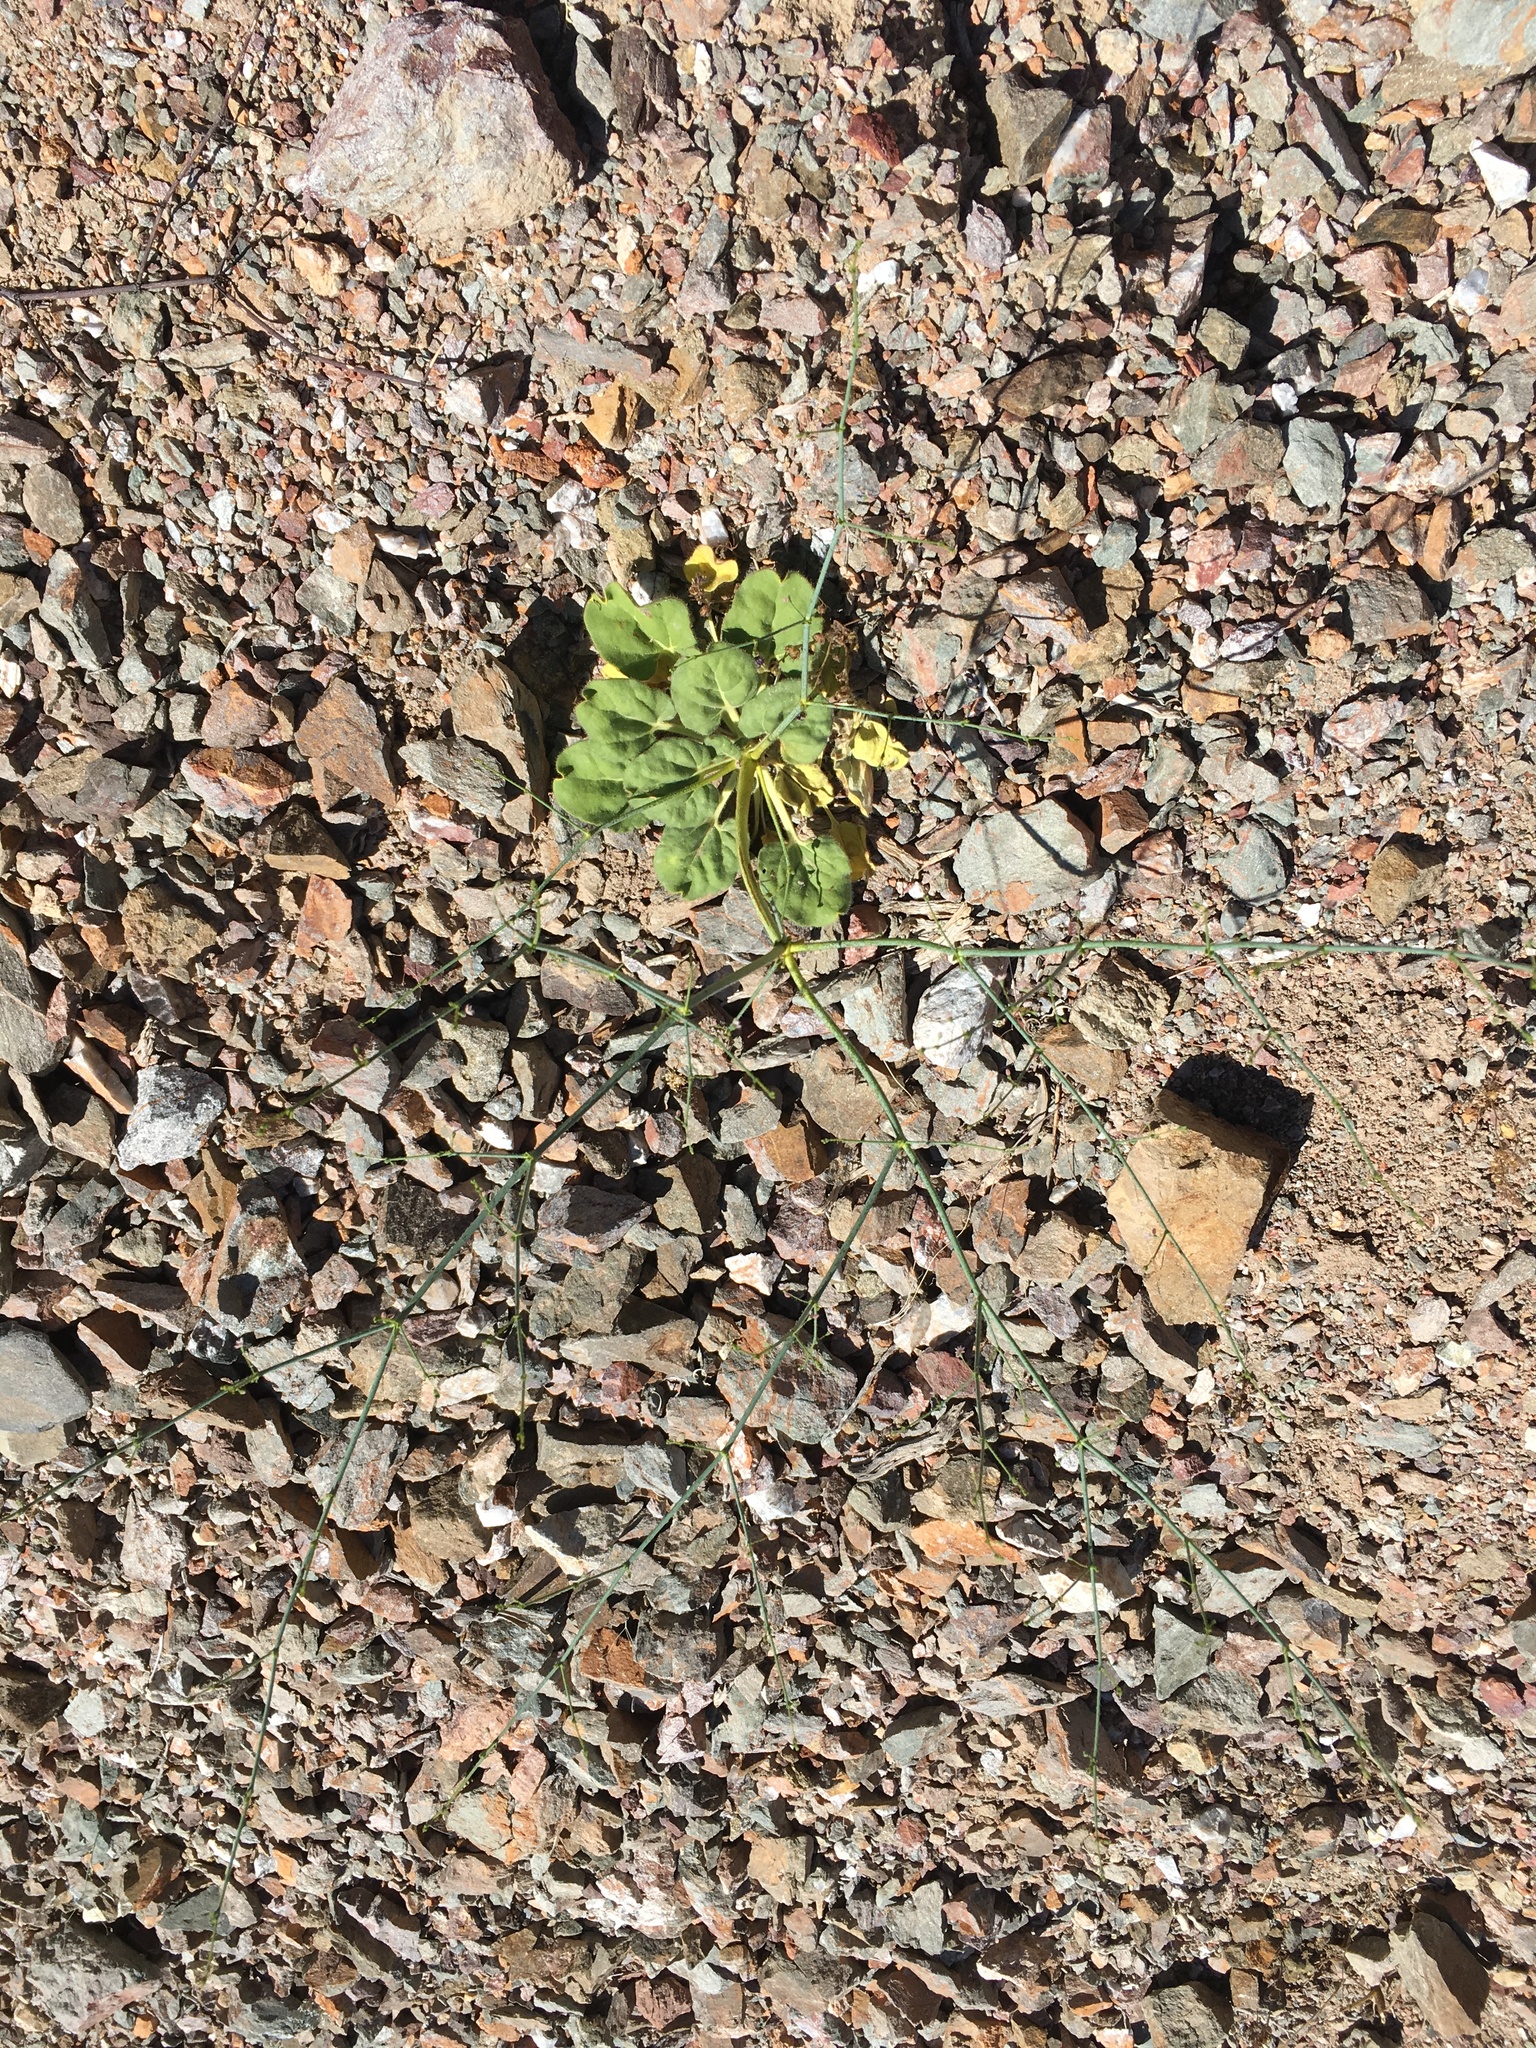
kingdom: Plantae
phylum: Tracheophyta
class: Magnoliopsida
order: Caryophyllales
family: Polygonaceae
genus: Eriogonum
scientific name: Eriogonum glandulosum
